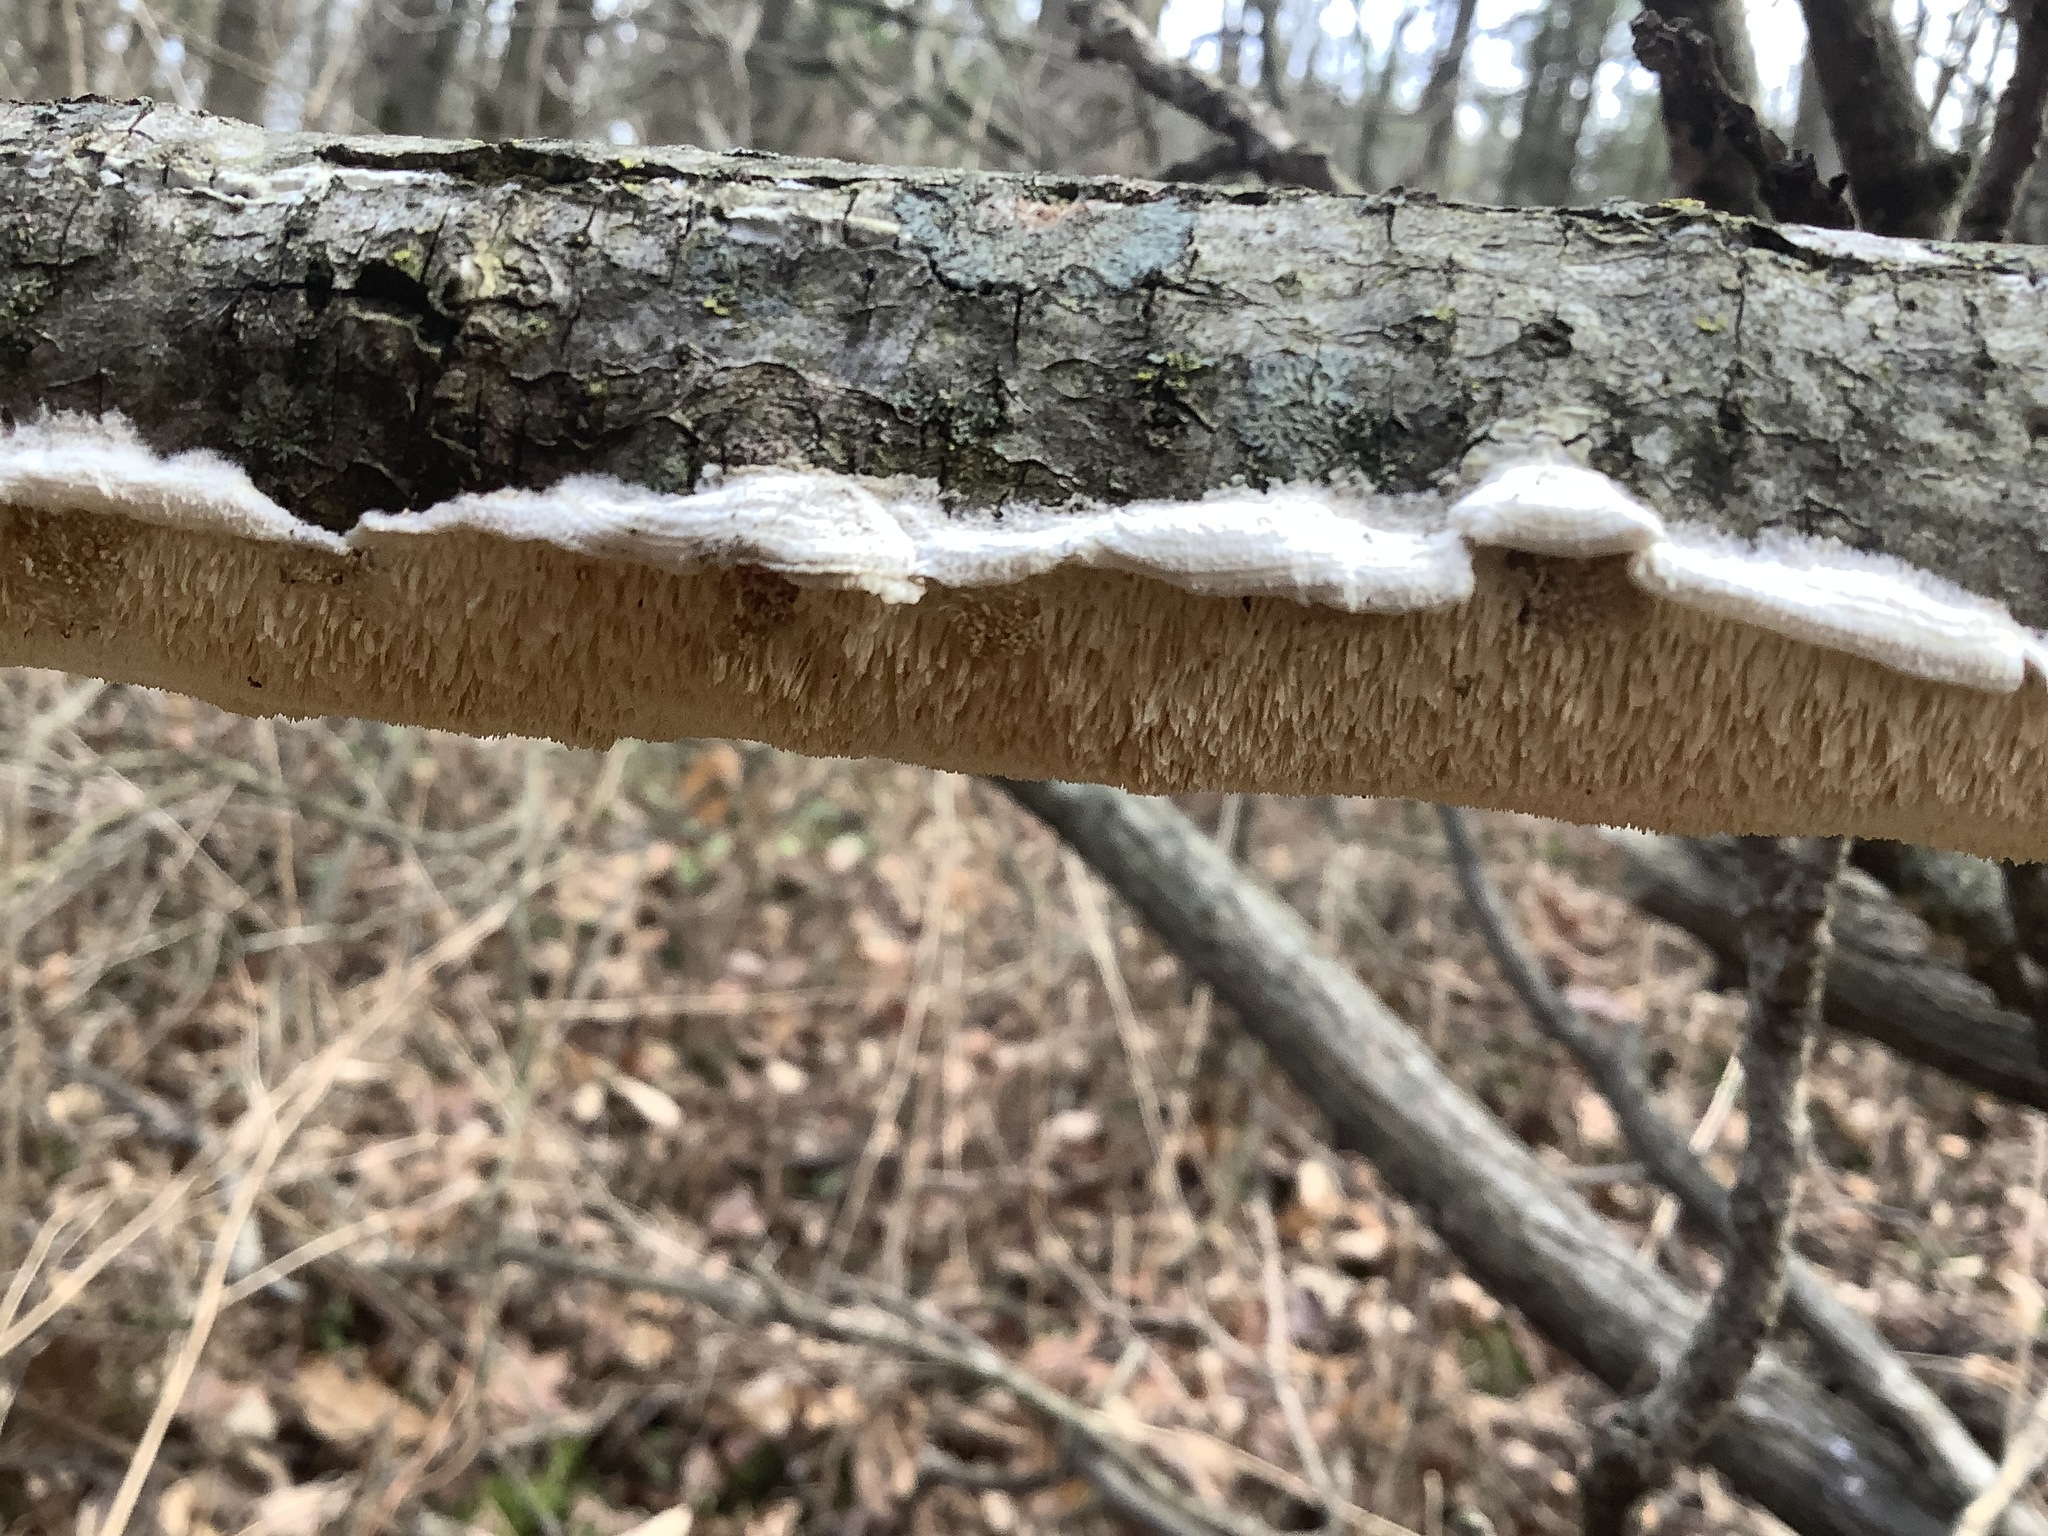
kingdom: Fungi
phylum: Basidiomycota
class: Agaricomycetes
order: Polyporales
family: Irpicaceae
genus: Irpex
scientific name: Irpex lacteus
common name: Milk-white toothed polypore
